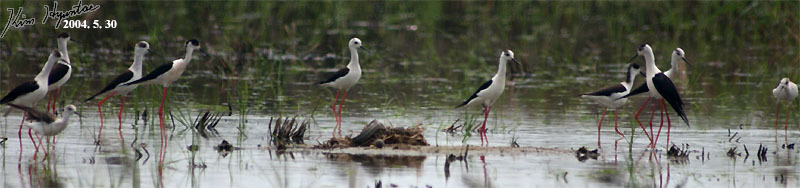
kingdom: Animalia
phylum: Chordata
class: Aves
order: Charadriiformes
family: Recurvirostridae
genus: Himantopus
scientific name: Himantopus himantopus
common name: Black-winged stilt
